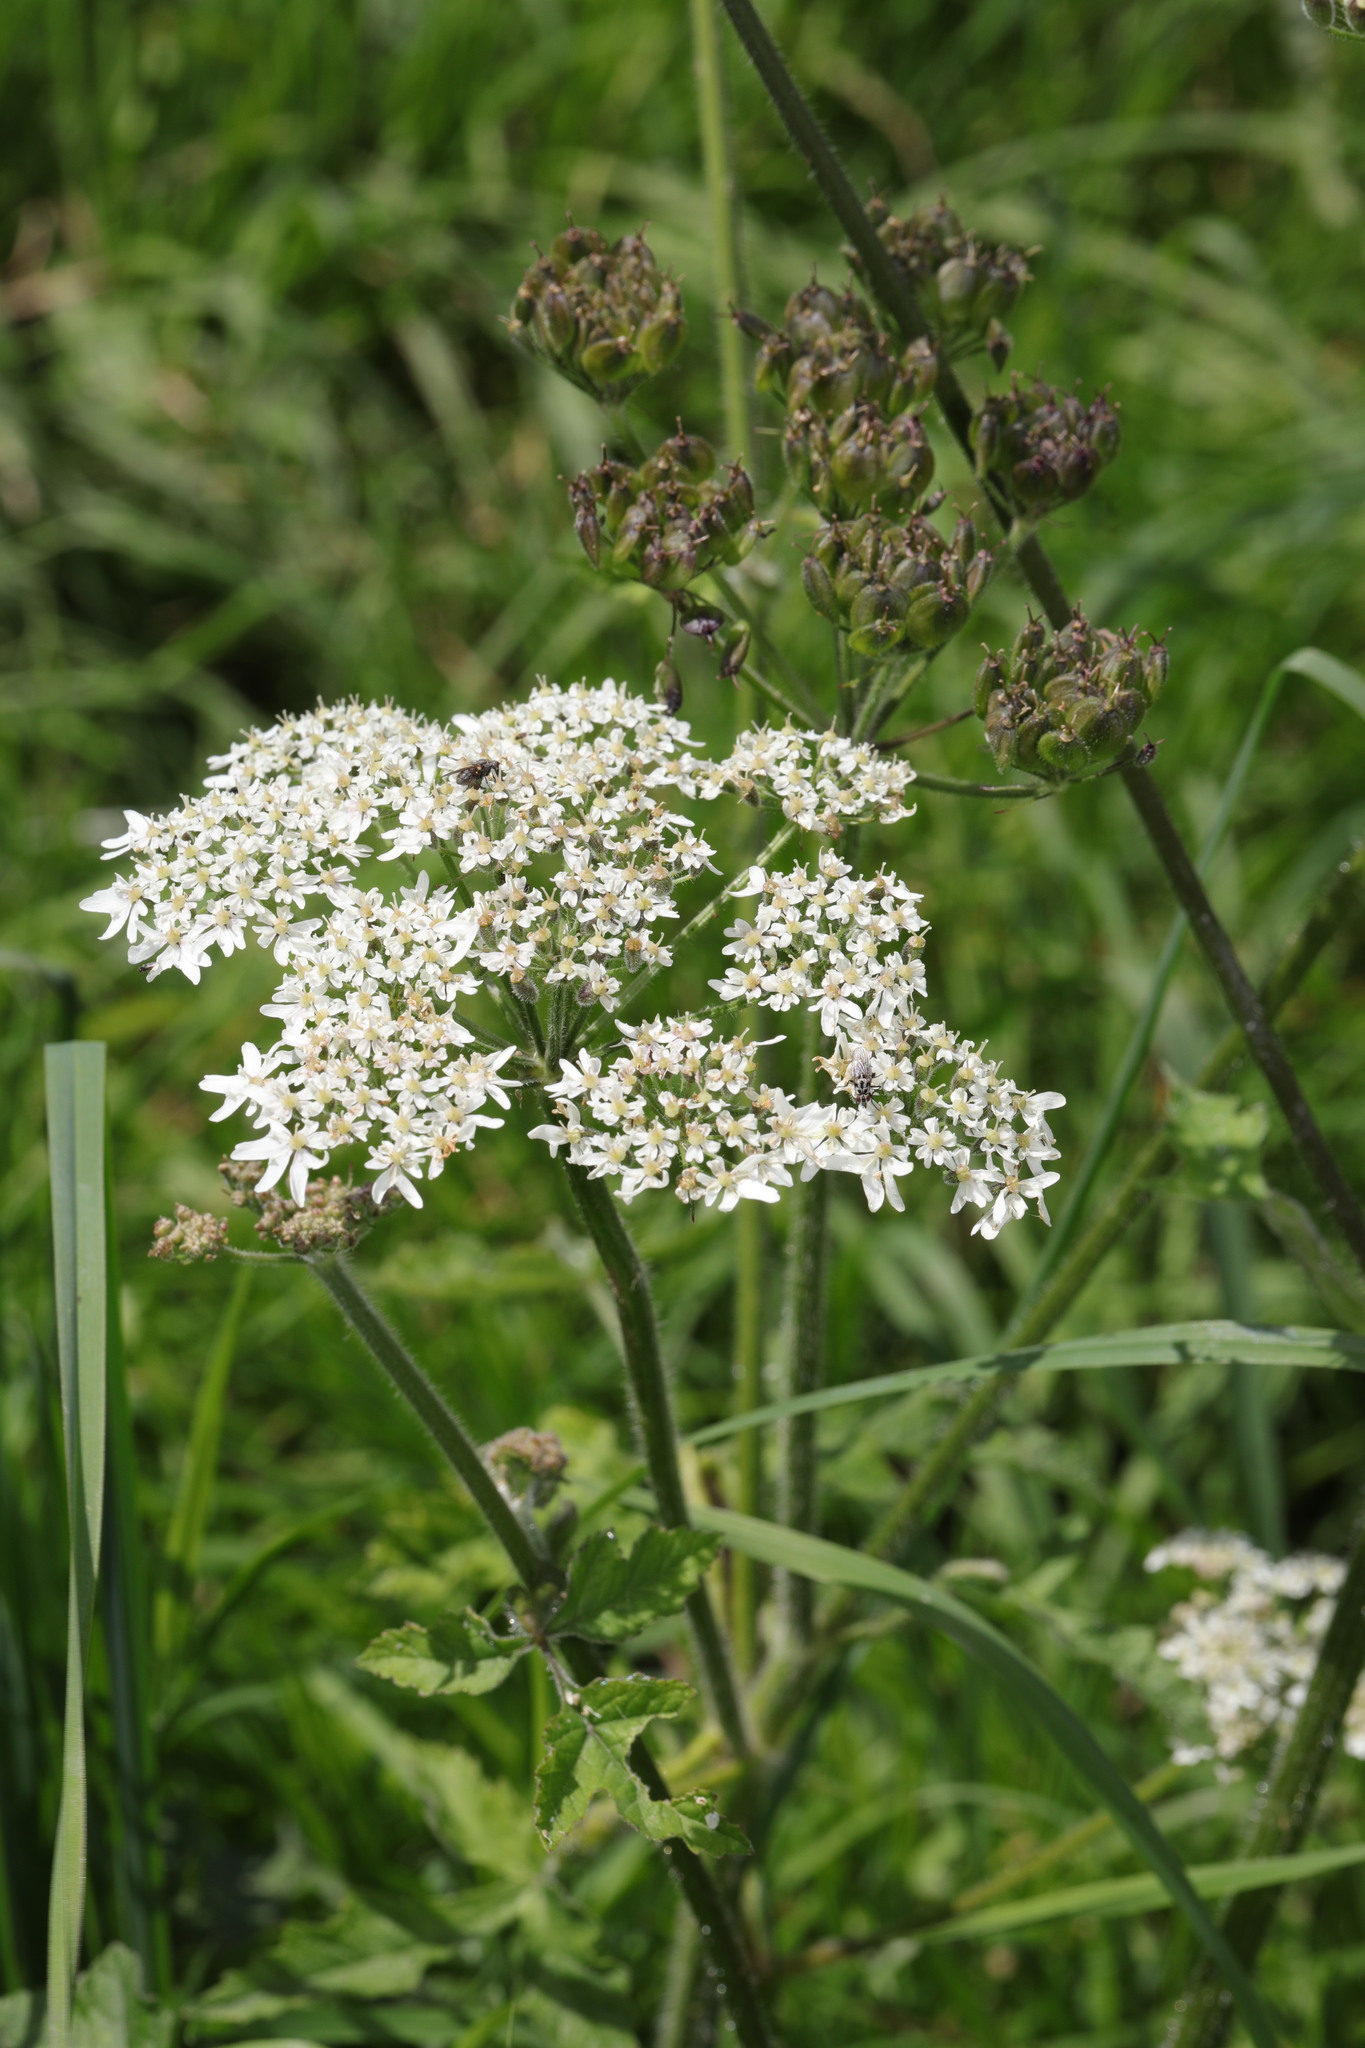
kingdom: Plantae
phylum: Tracheophyta
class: Magnoliopsida
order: Apiales
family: Apiaceae
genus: Heracleum
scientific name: Heracleum sphondylium
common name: Hogweed
